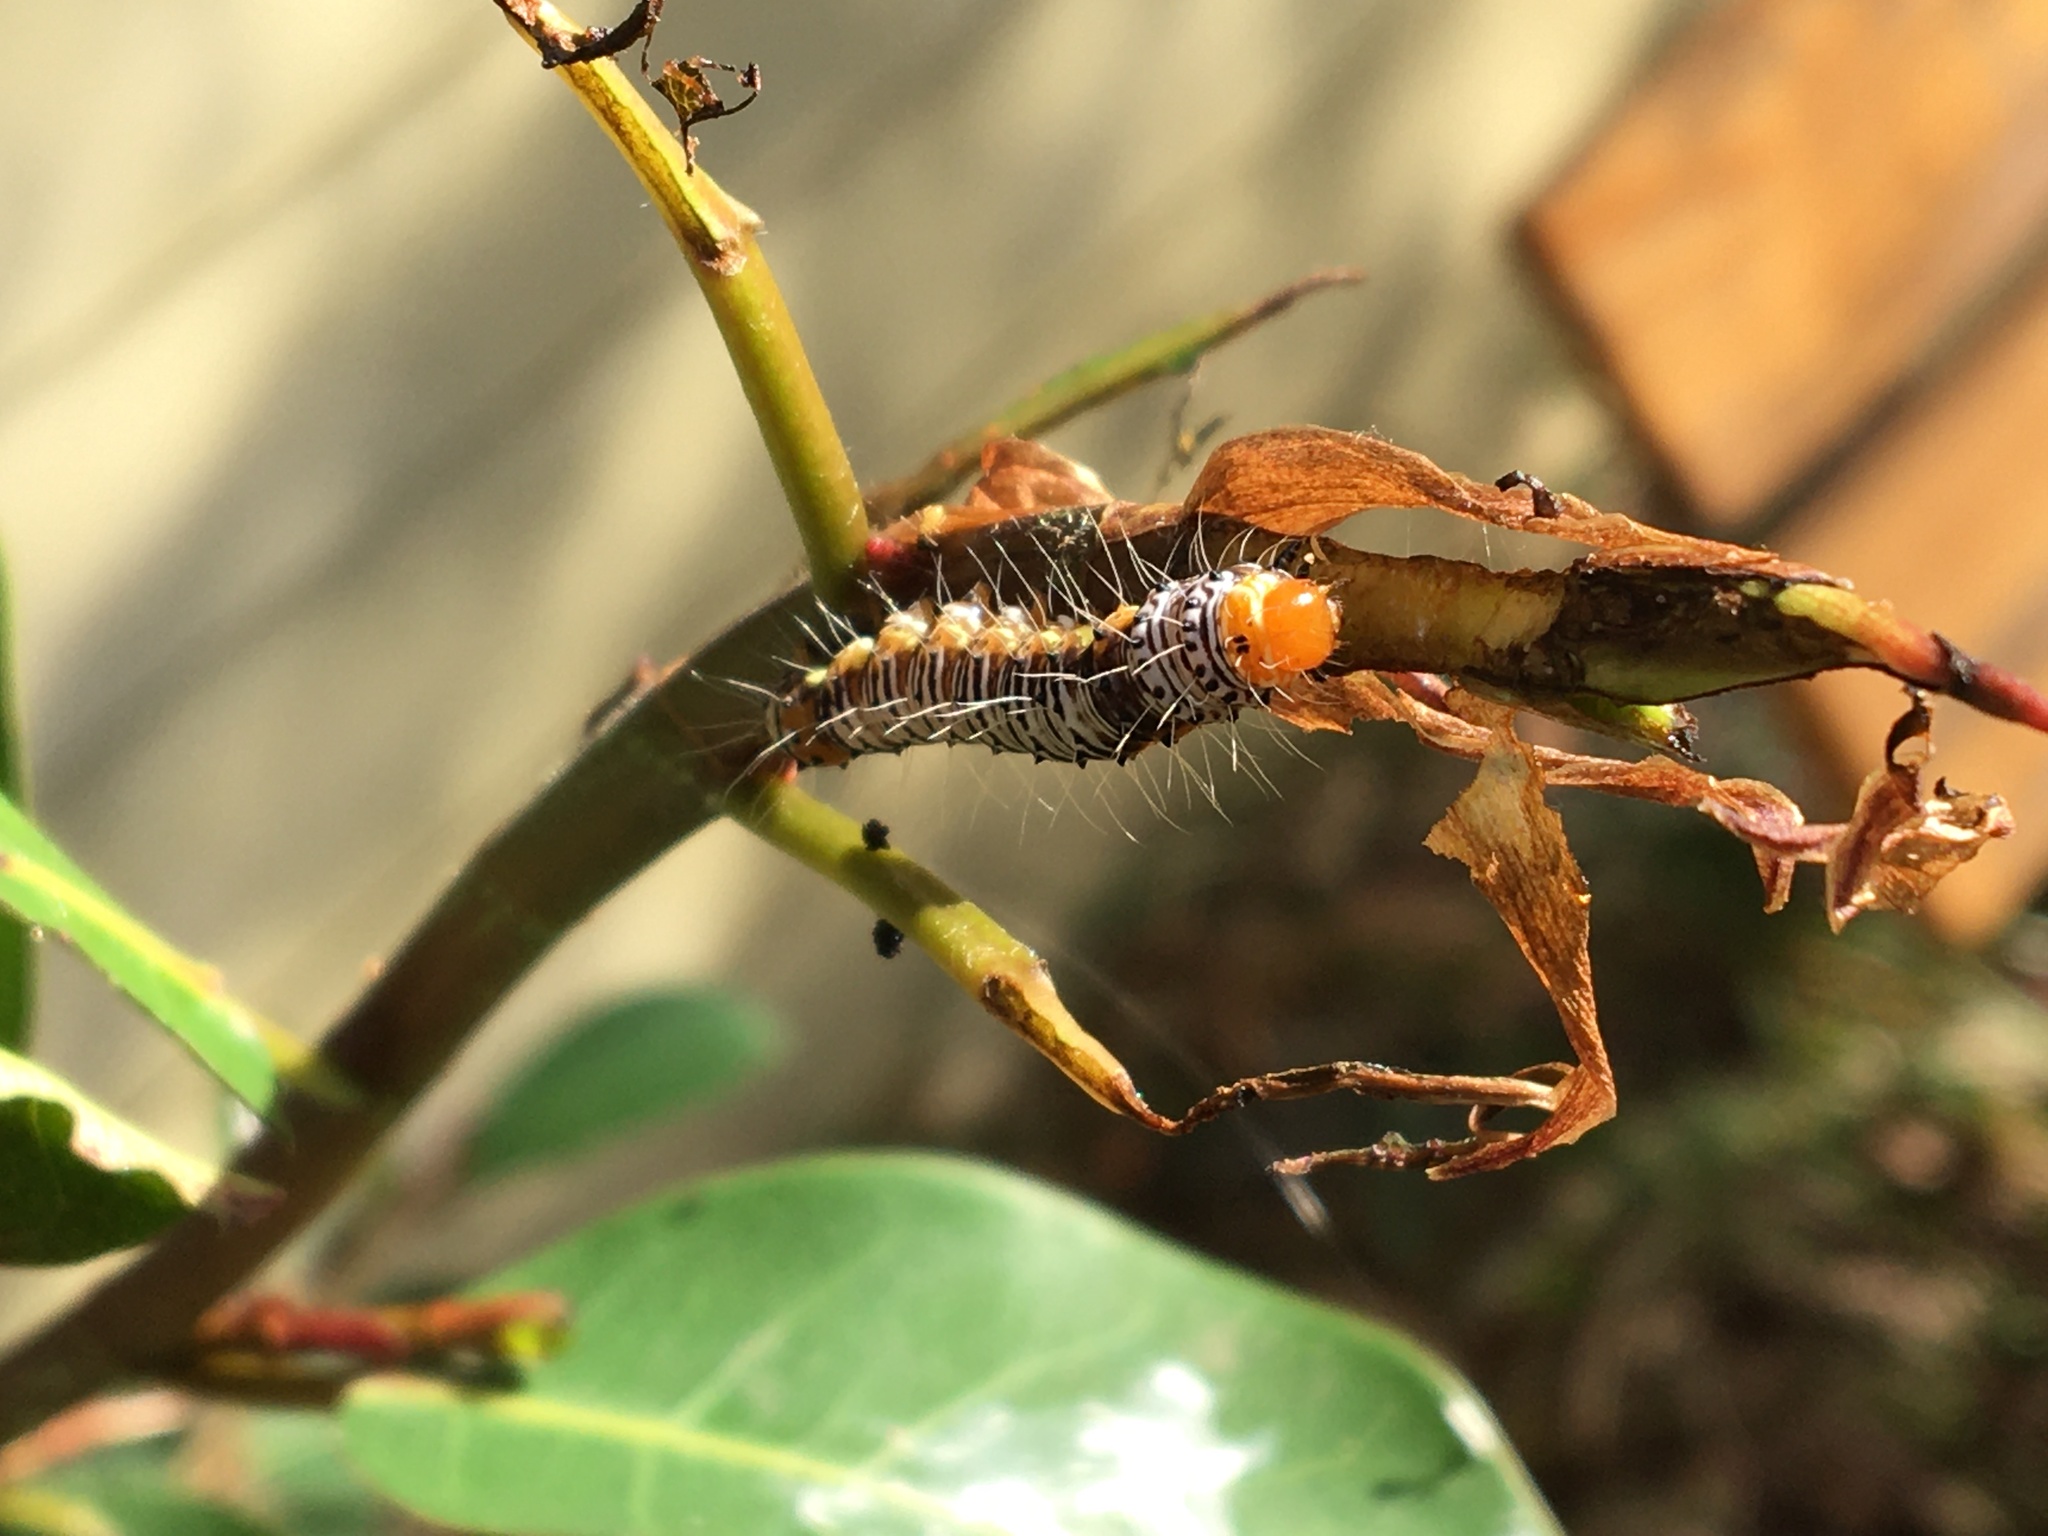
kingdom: Animalia
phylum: Arthropoda
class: Insecta
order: Lepidoptera
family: Erebidae
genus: Asota
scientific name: Asota speciosa
